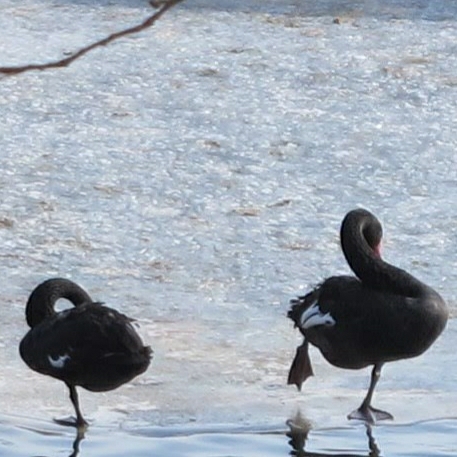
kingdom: Animalia
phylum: Chordata
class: Aves
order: Anseriformes
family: Anatidae
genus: Cygnus
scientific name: Cygnus atratus
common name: Black swan
